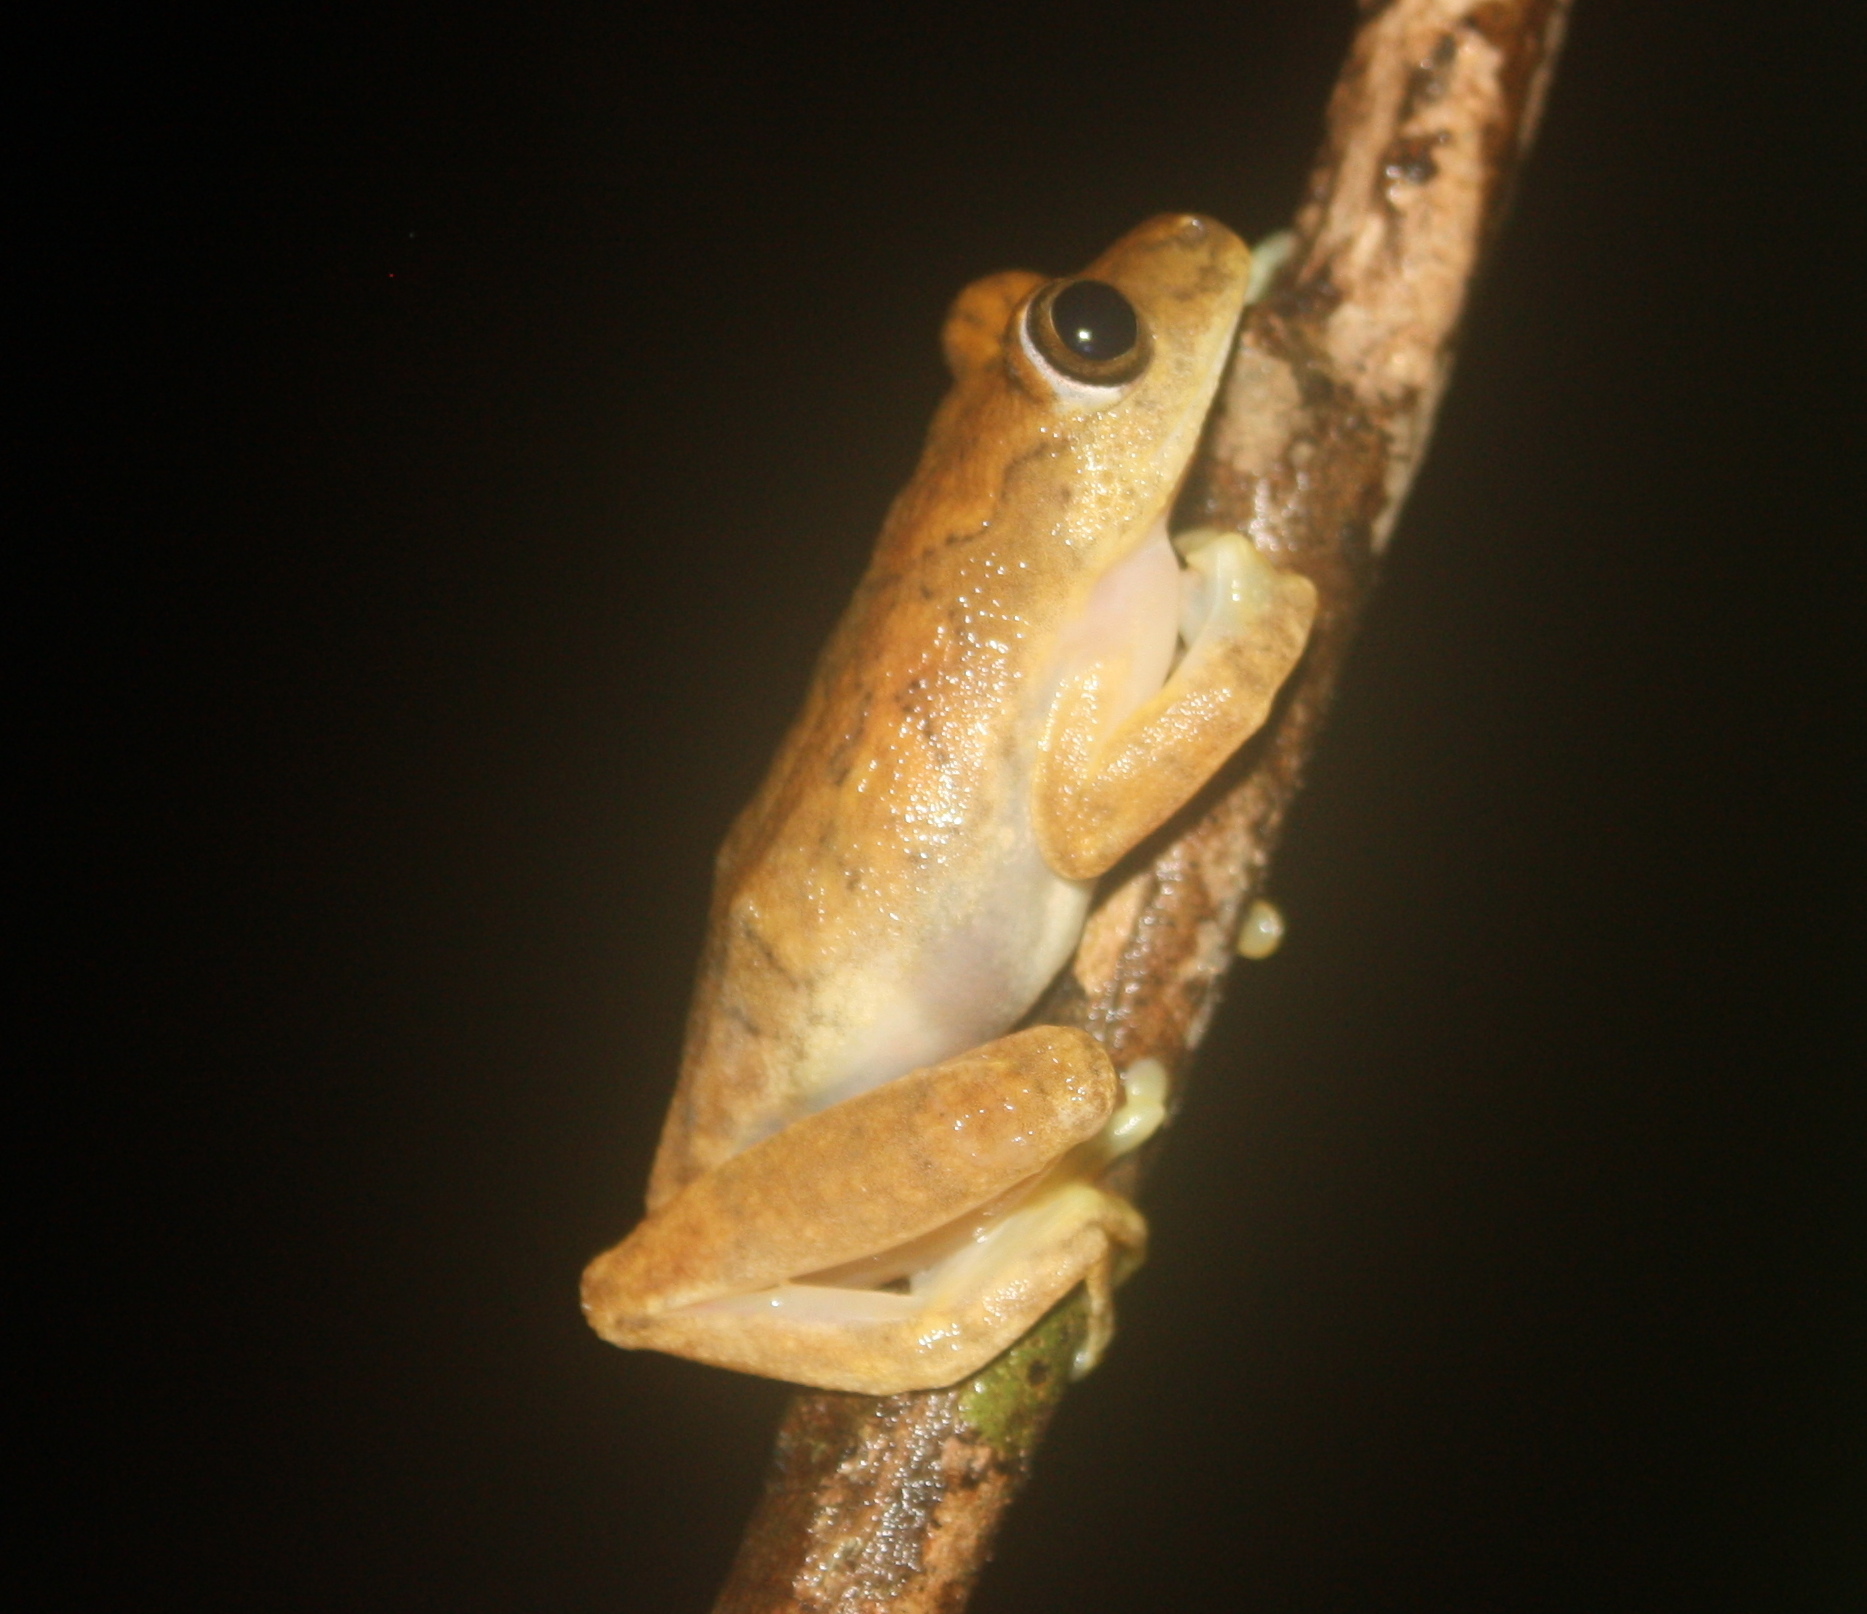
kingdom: Animalia
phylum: Chordata
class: Amphibia
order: Anura
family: Hyperoliidae
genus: Hyperolius
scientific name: Hyperolius zonatus
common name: Nimba reed frog
